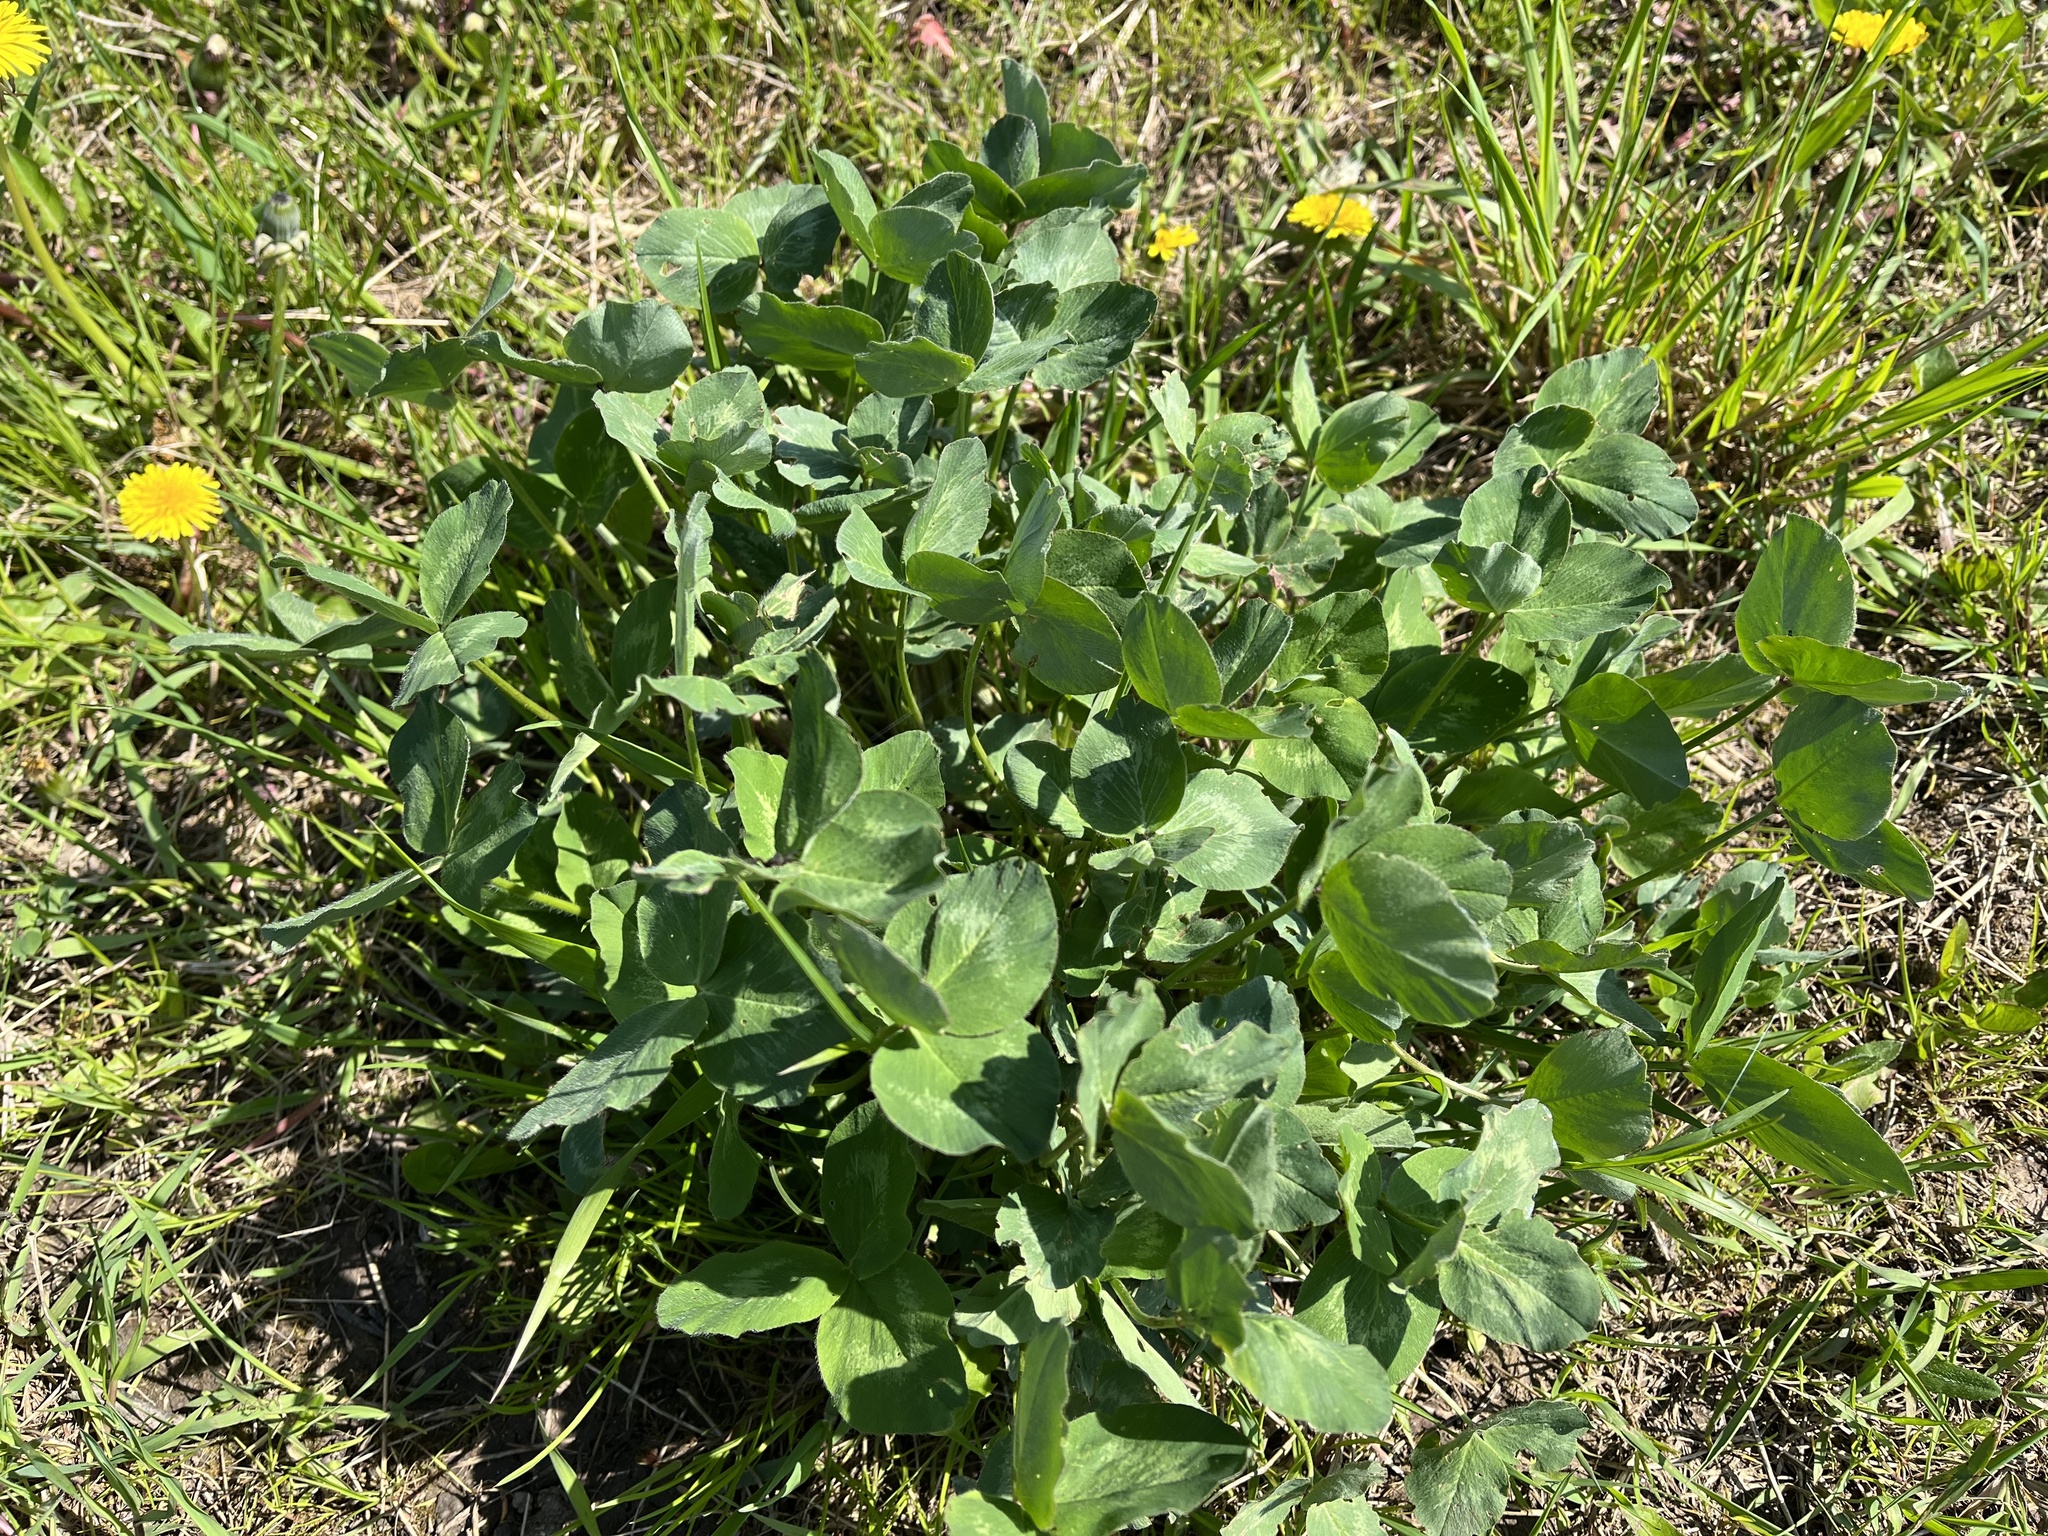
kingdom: Plantae
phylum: Tracheophyta
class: Magnoliopsida
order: Fabales
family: Fabaceae
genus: Trifolium
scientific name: Trifolium pratense
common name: Red clover
